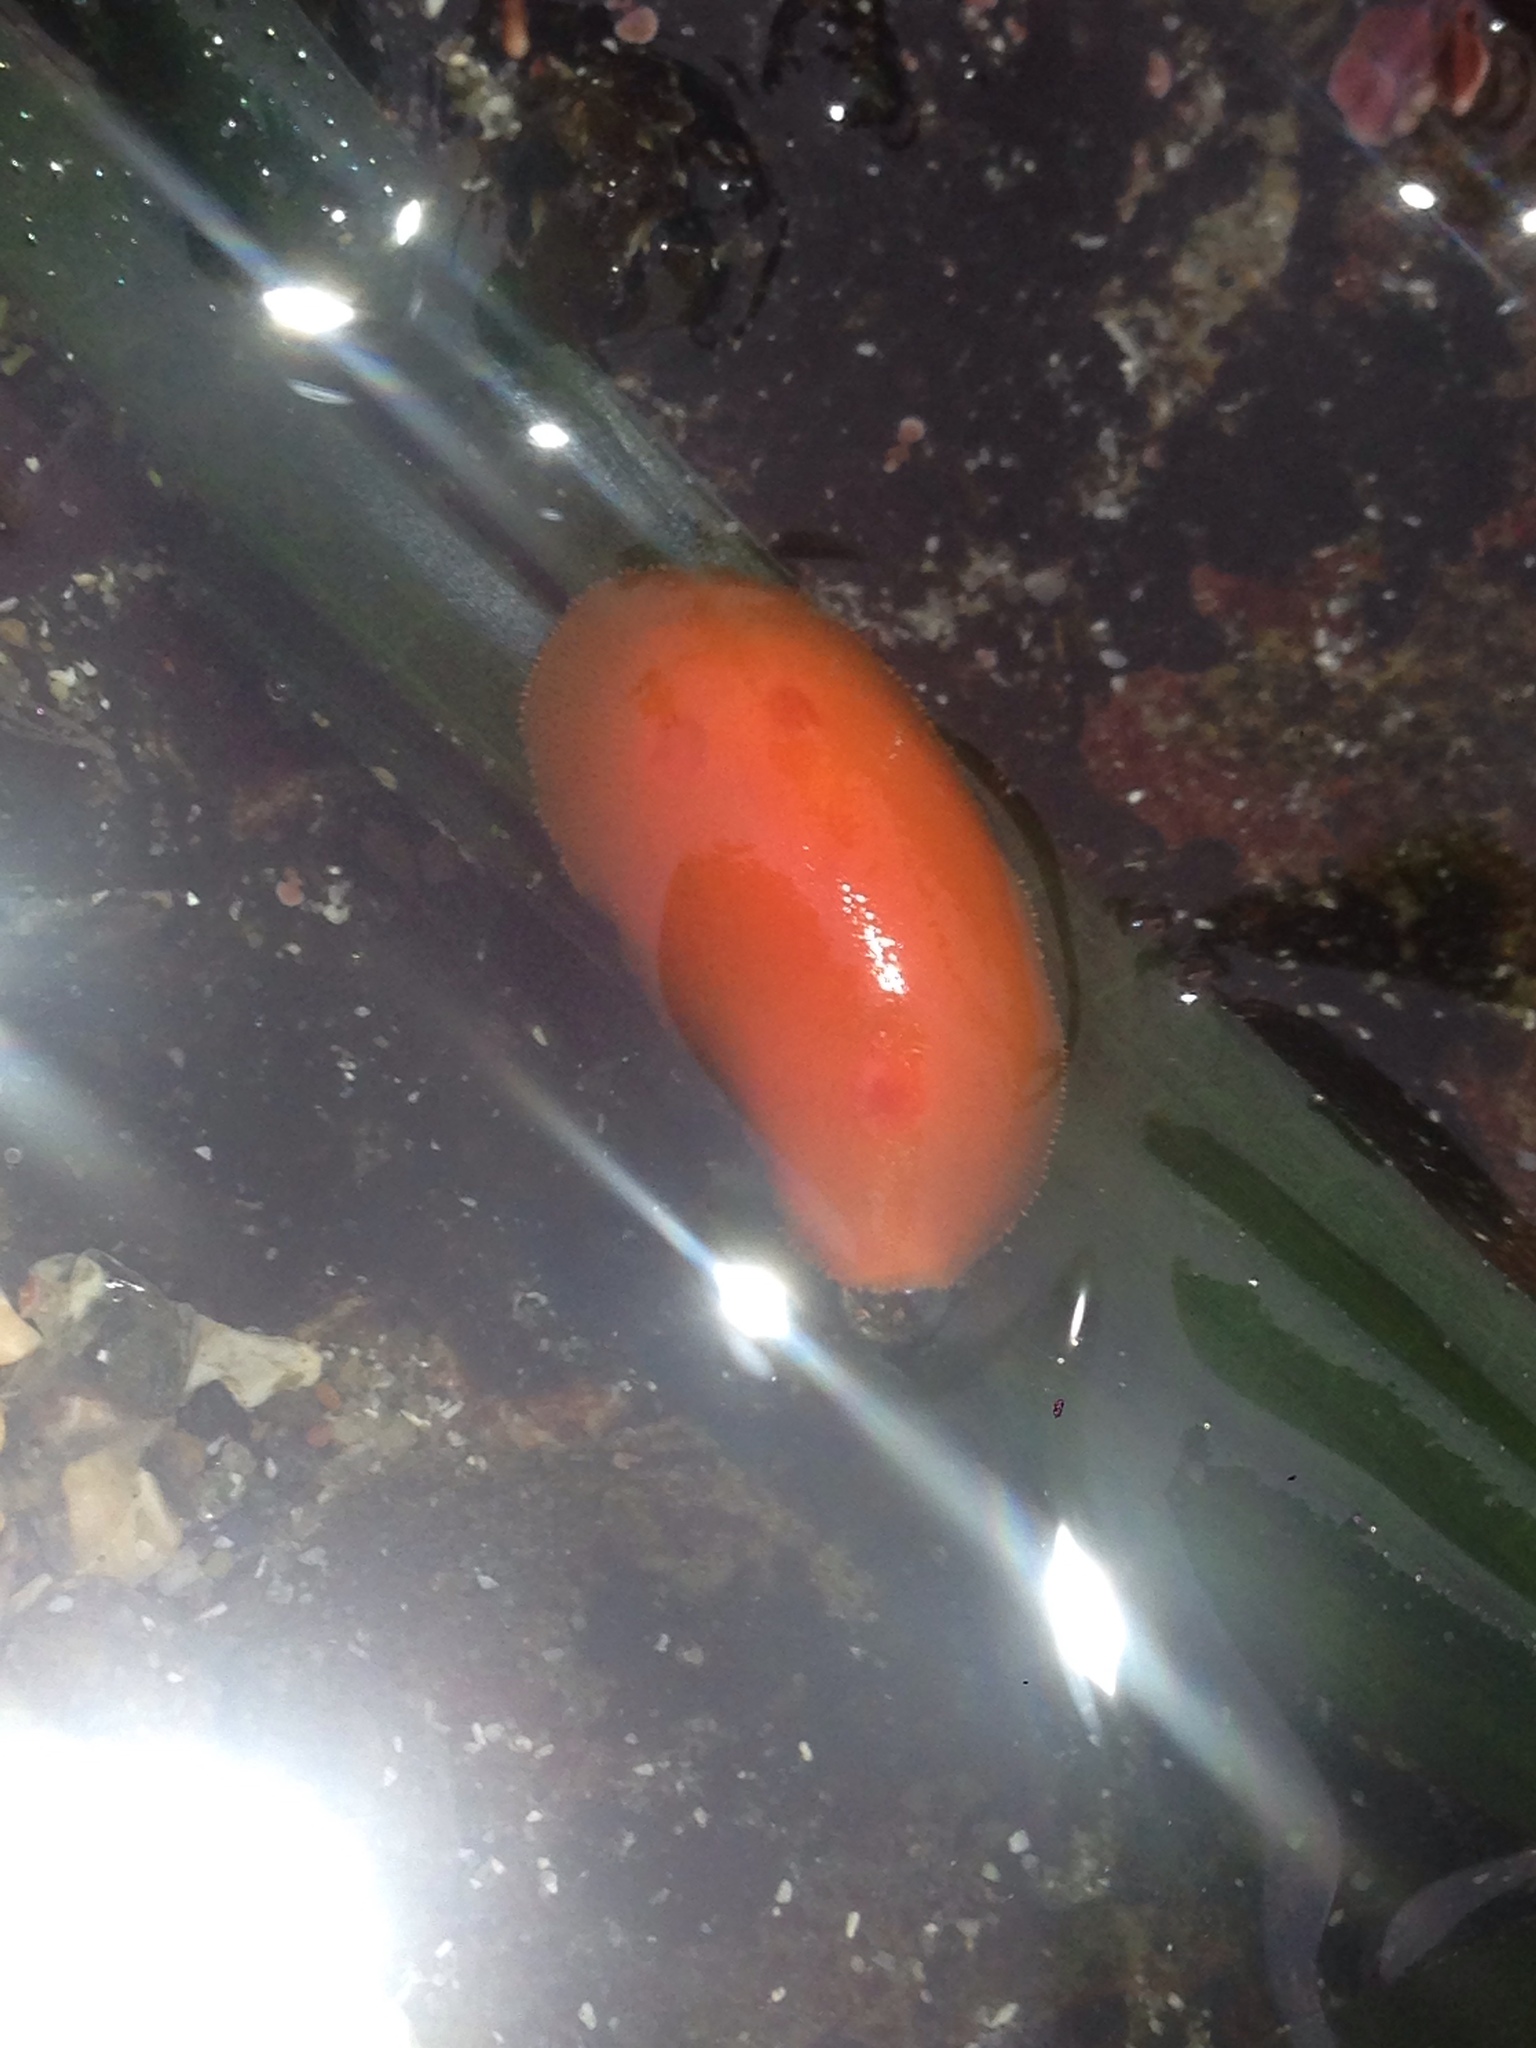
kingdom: Animalia
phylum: Mollusca
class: Gastropoda
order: Nudibranchia
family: Discodorididae
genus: Rostanga
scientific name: Rostanga pulchra
